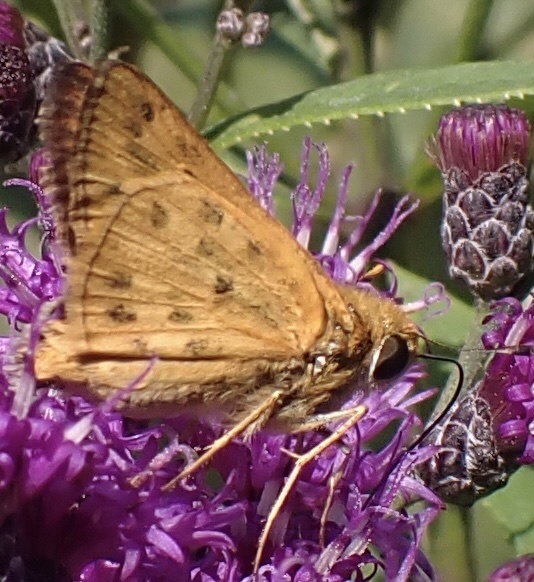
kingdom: Animalia
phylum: Arthropoda
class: Insecta
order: Lepidoptera
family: Hesperiidae
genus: Hylephila
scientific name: Hylephila phyleus
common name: Fiery skipper
